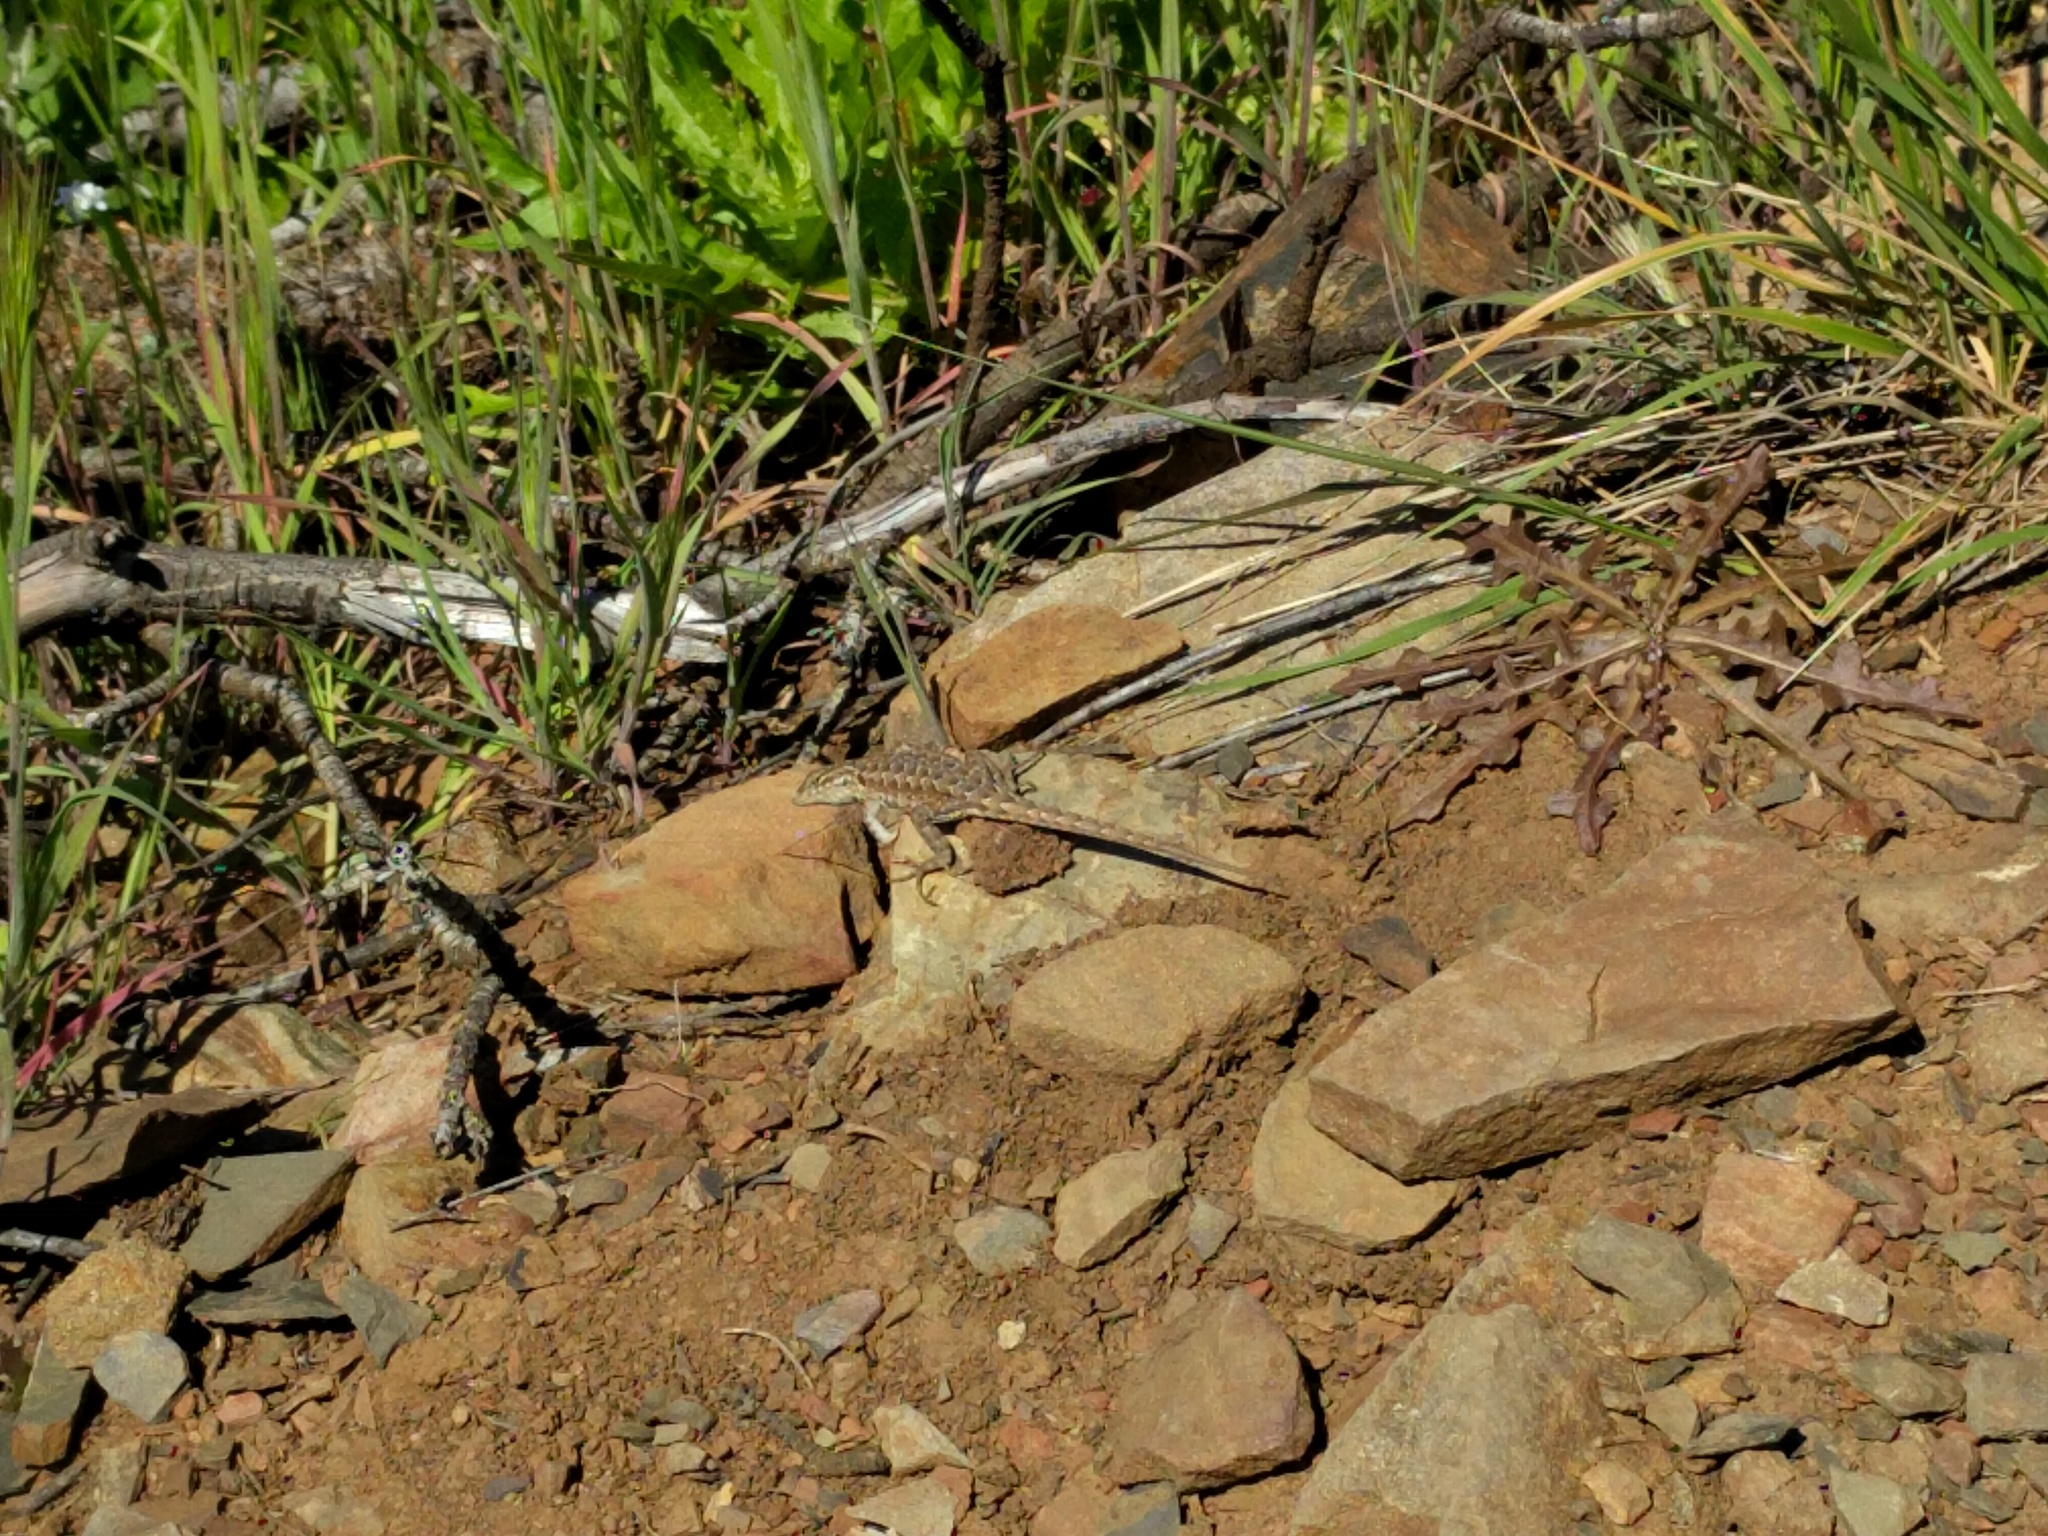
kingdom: Animalia
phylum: Chordata
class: Squamata
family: Phrynosomatidae
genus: Uta
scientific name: Uta stansburiana
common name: Side-blotched lizard
